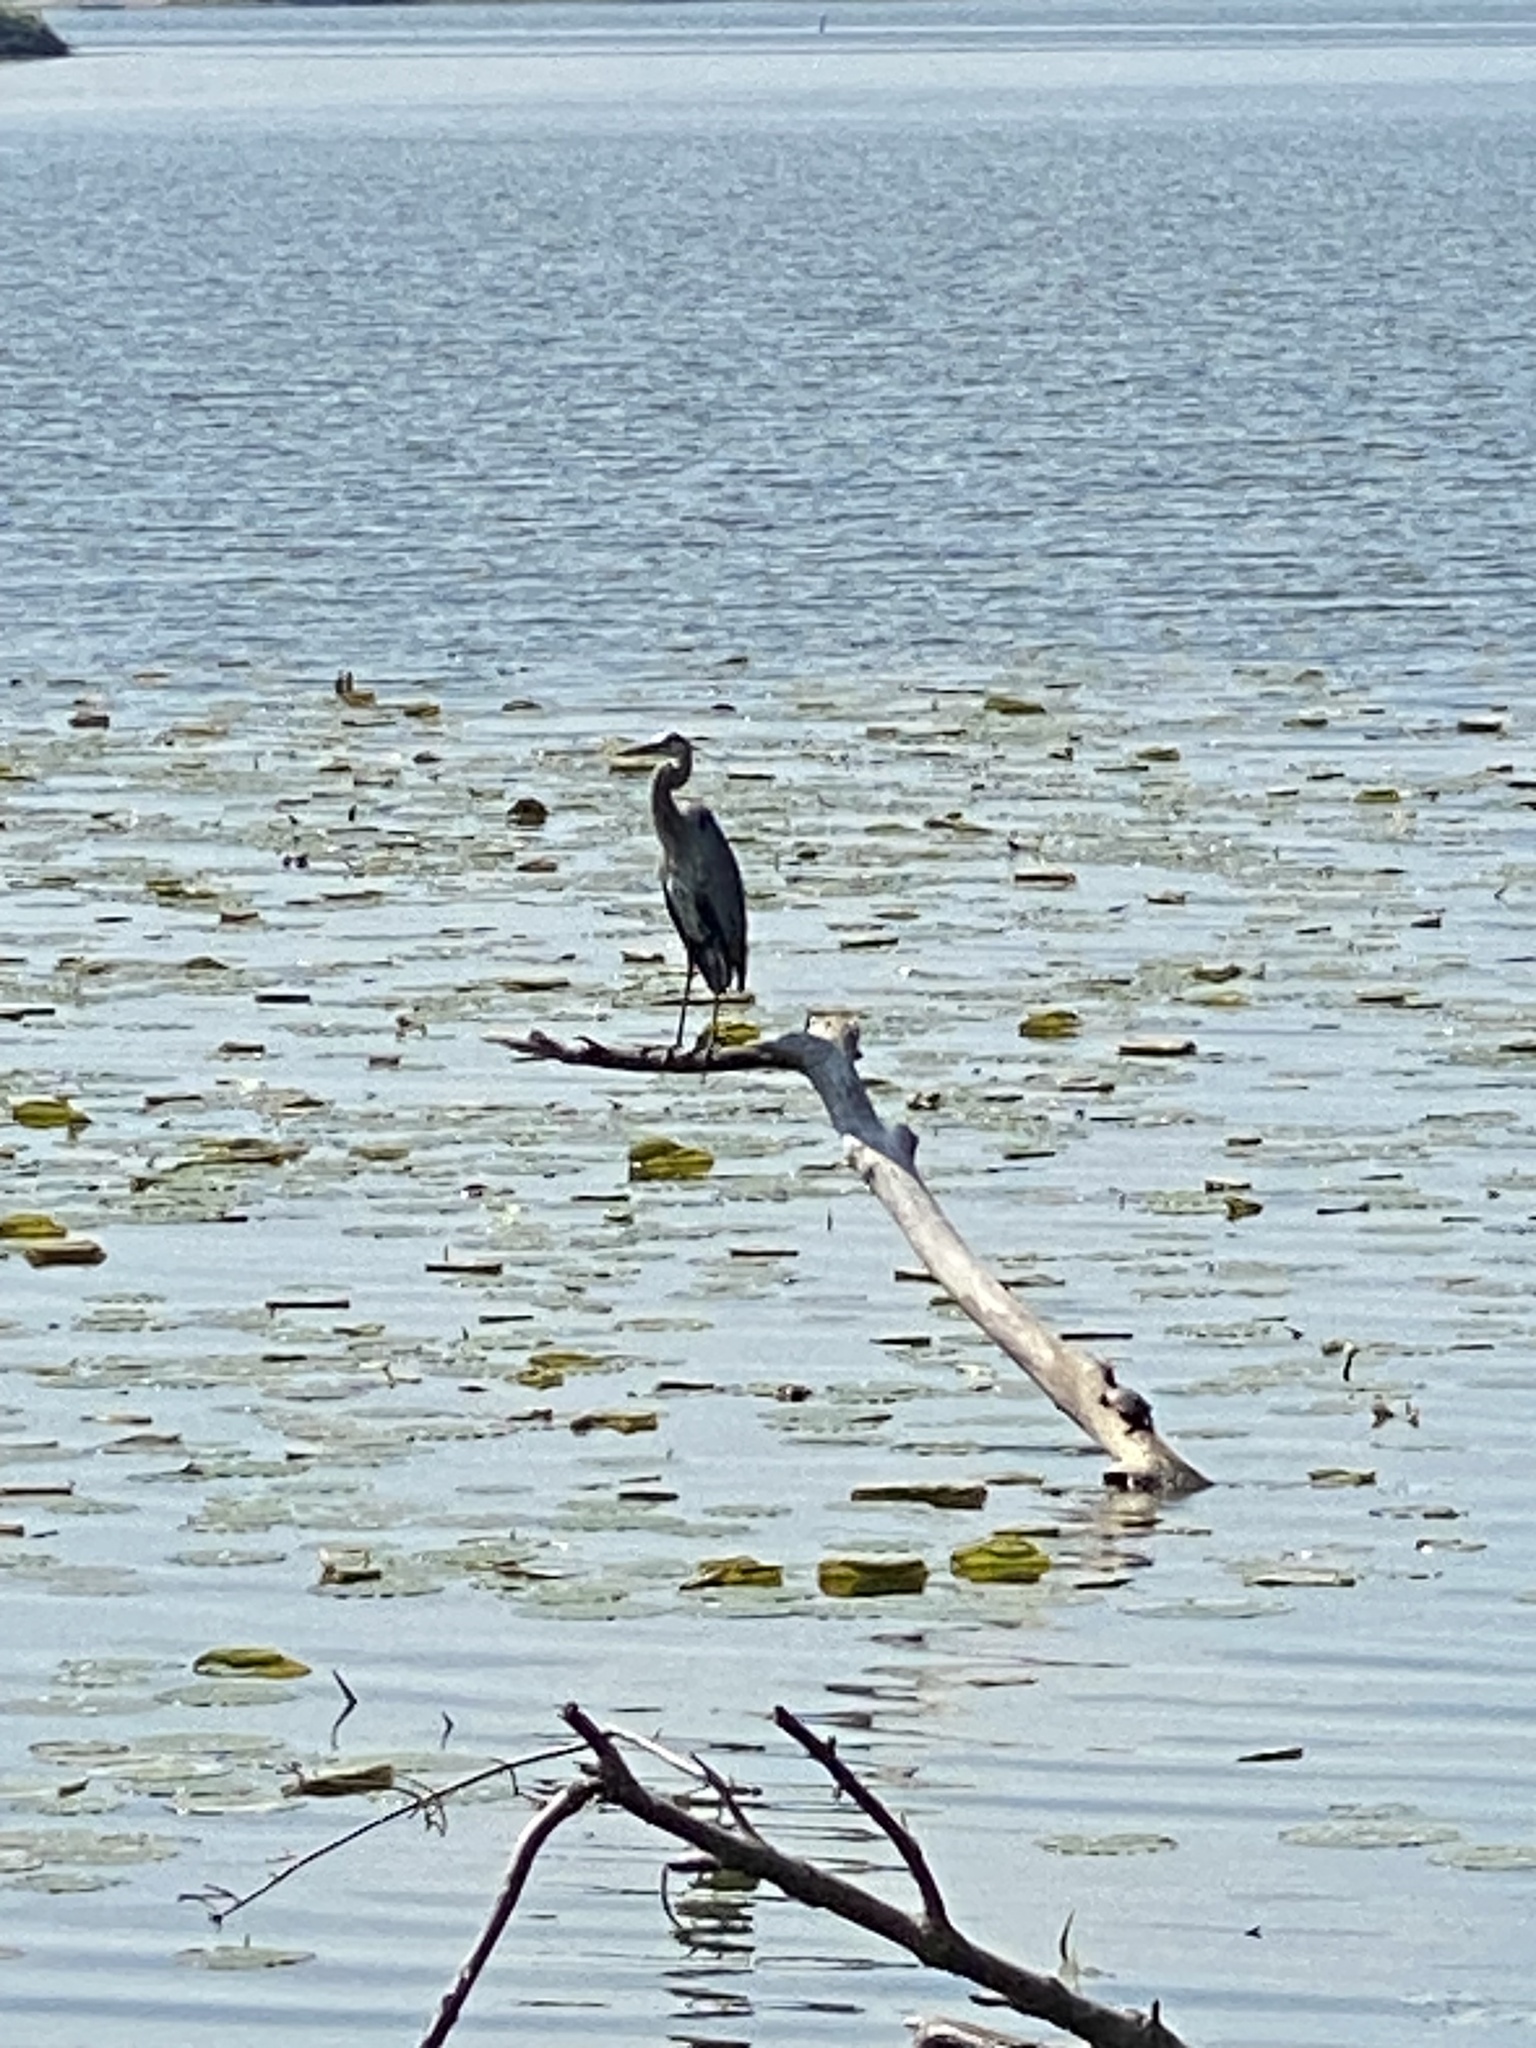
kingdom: Animalia
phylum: Chordata
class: Aves
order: Pelecaniformes
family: Ardeidae
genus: Ardea
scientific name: Ardea herodias
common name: Great blue heron
